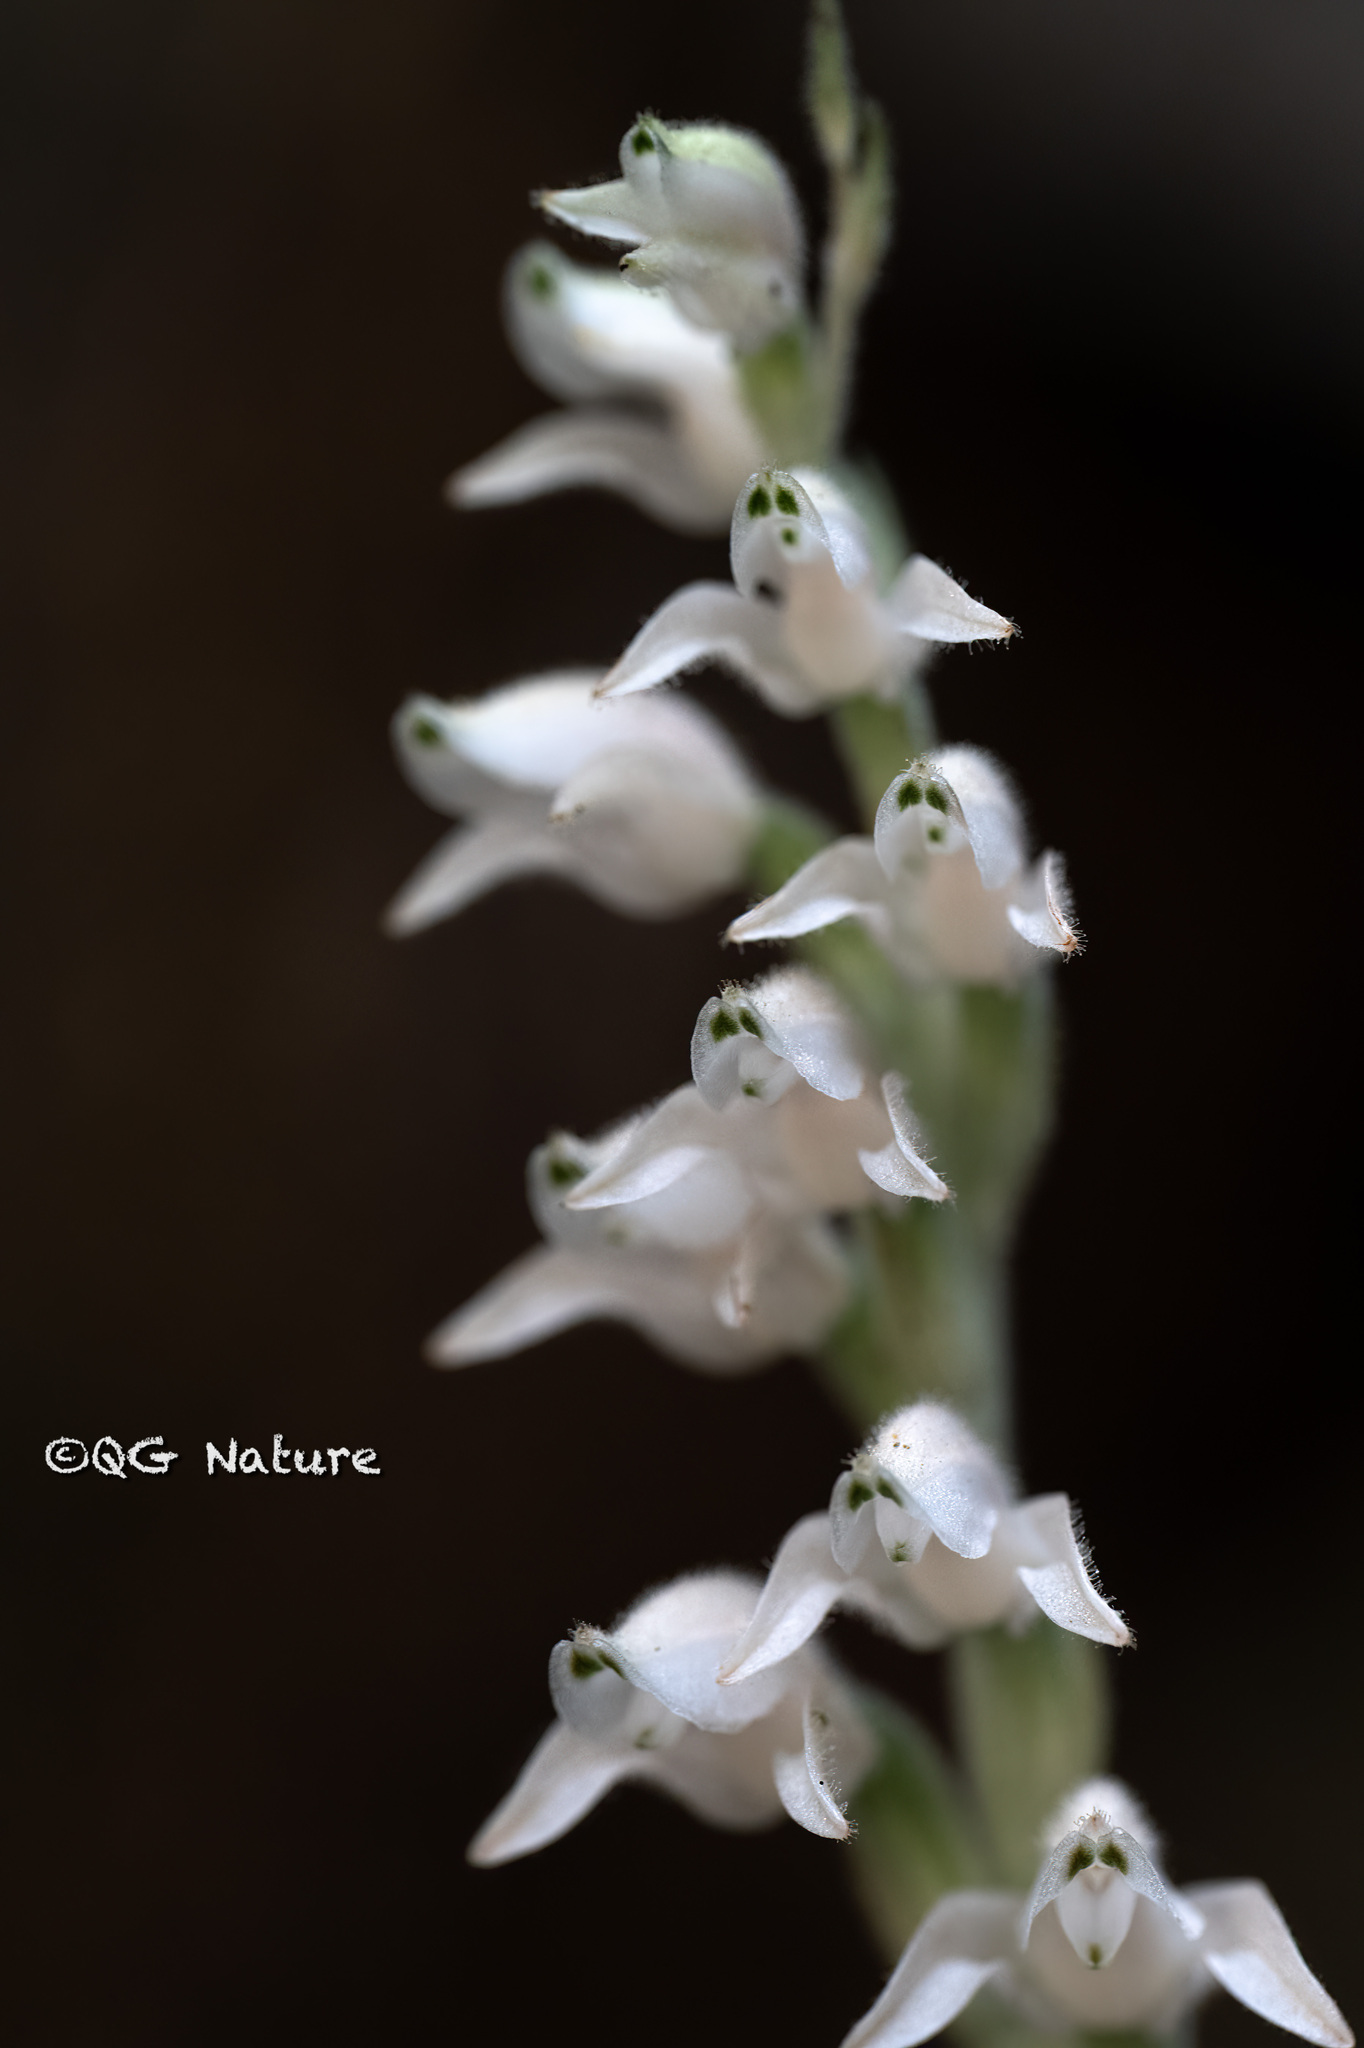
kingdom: Plantae
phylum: Tracheophyta
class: Liliopsida
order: Asparagales
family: Orchidaceae
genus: Goodyera
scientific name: Goodyera schlechtendaliana
